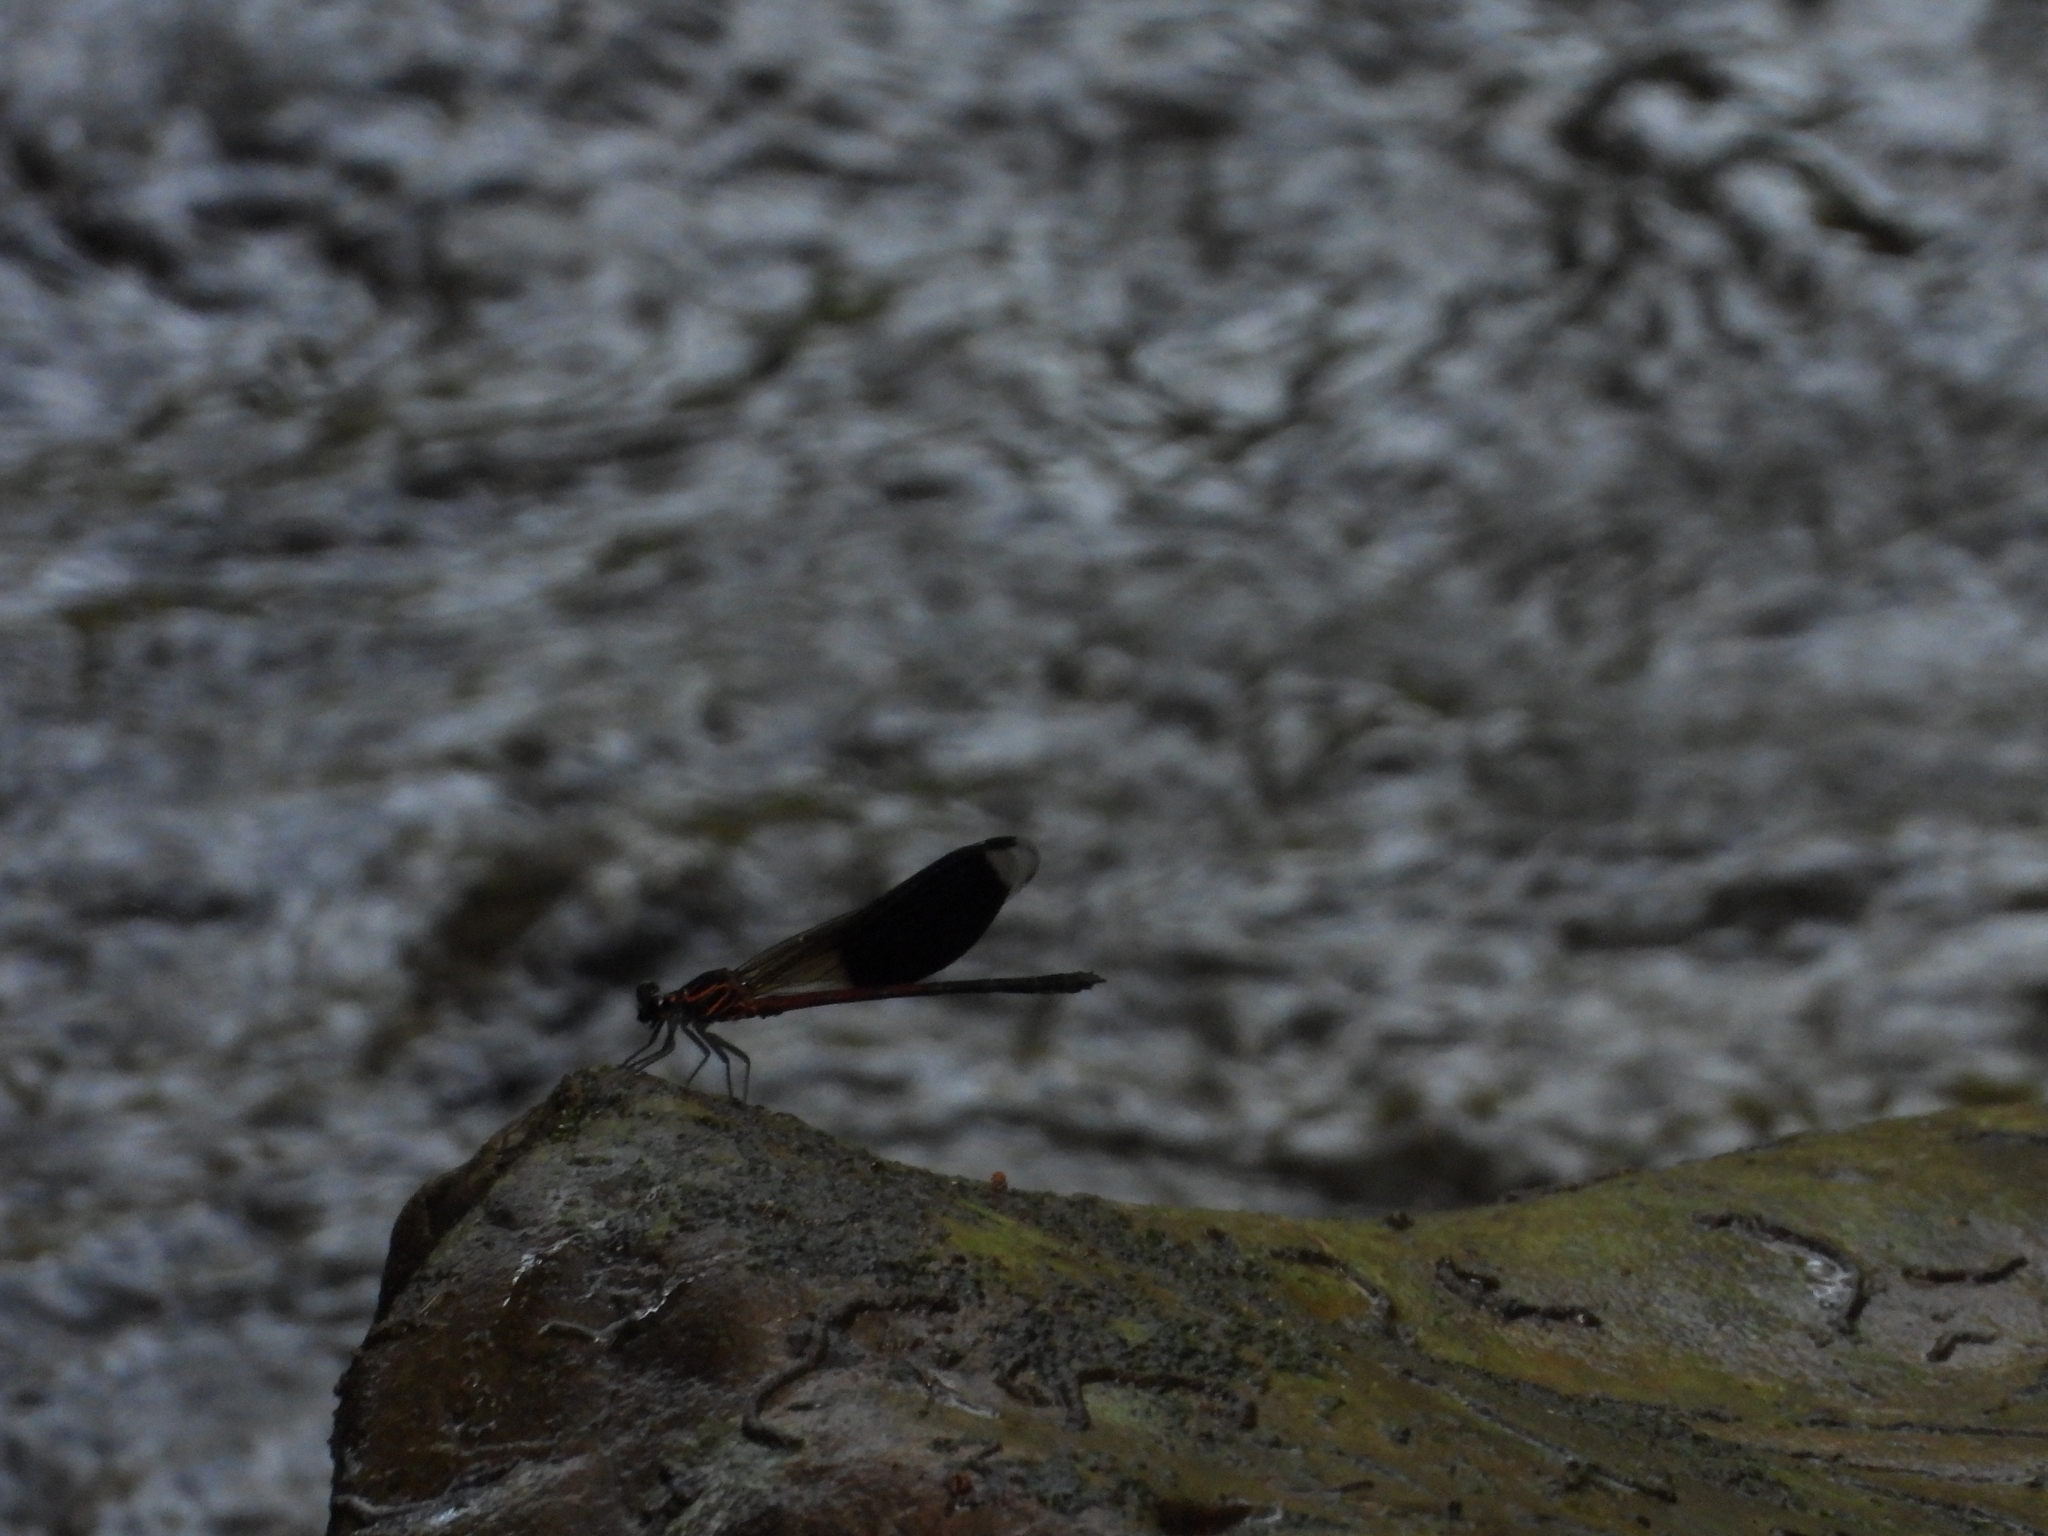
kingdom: Animalia
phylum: Arthropoda
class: Insecta
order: Odonata
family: Euphaeidae
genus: Euphaea
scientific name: Euphaea formosa
